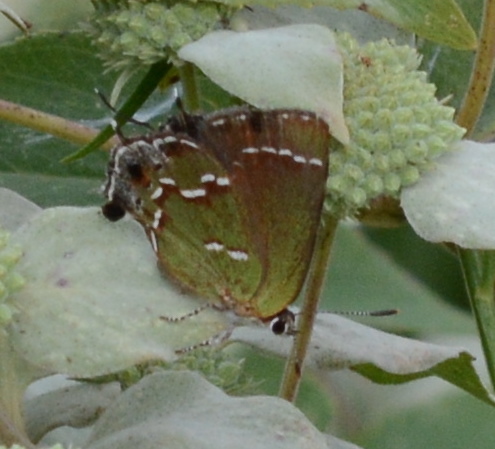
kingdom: Animalia
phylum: Arthropoda
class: Insecta
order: Lepidoptera
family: Lycaenidae
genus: Mitoura
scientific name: Mitoura gryneus
